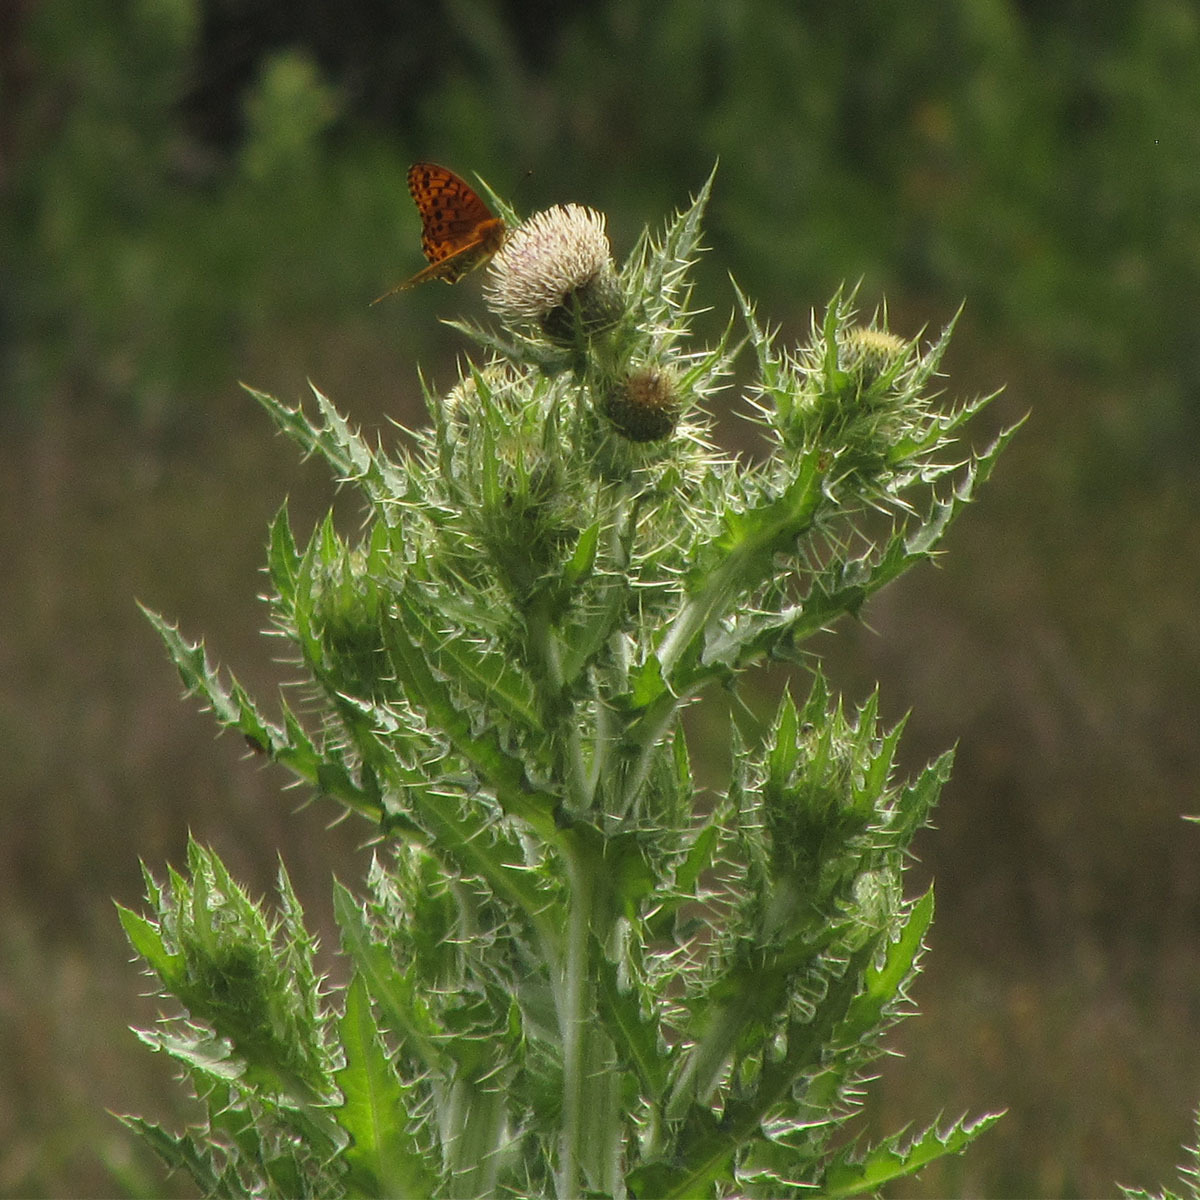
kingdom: Plantae
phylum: Tracheophyta
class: Magnoliopsida
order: Asterales
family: Asteraceae
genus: Cirsium
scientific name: Cirsium wallichii
